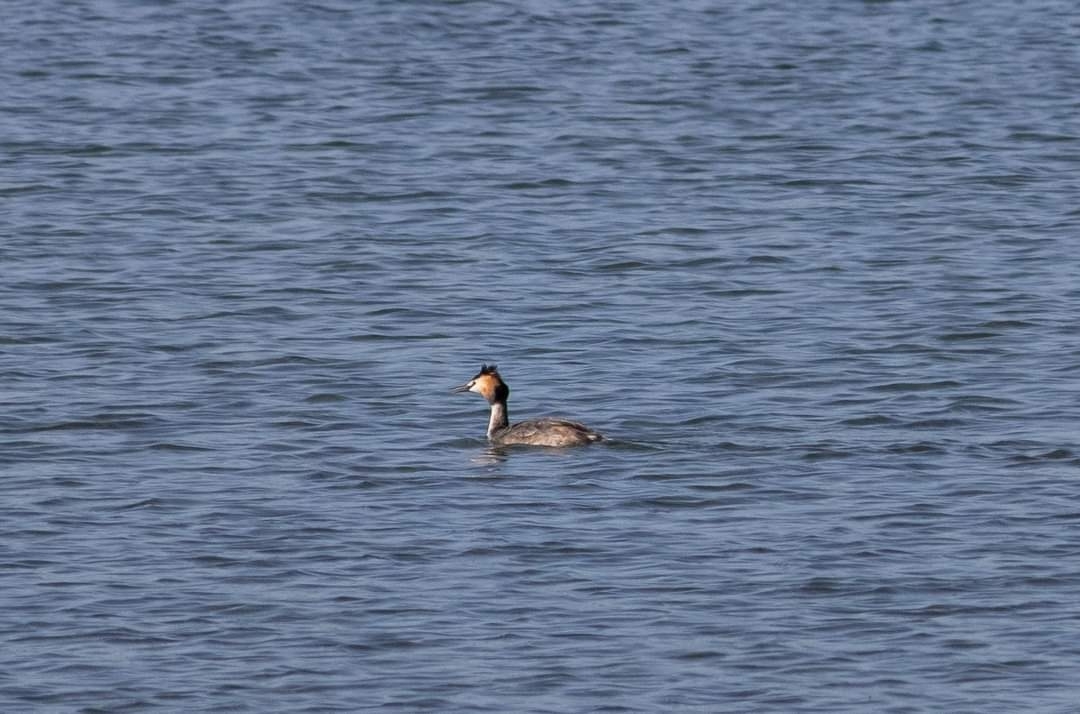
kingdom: Animalia
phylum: Chordata
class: Aves
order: Podicipediformes
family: Podicipedidae
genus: Podiceps
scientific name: Podiceps cristatus
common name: Great crested grebe
